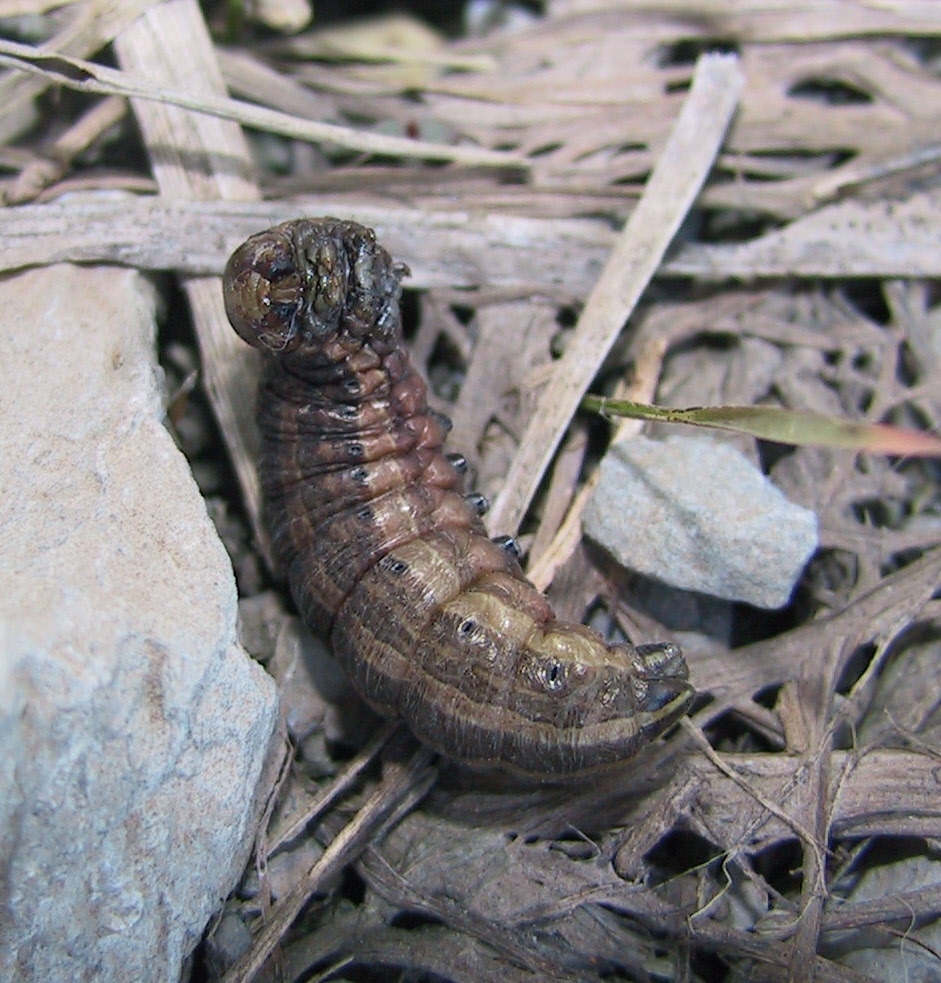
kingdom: Animalia
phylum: Arthropoda
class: Insecta
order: Lepidoptera
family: Noctuidae
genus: Nephelodes
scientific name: Nephelodes minians
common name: Bronzed cutworm
